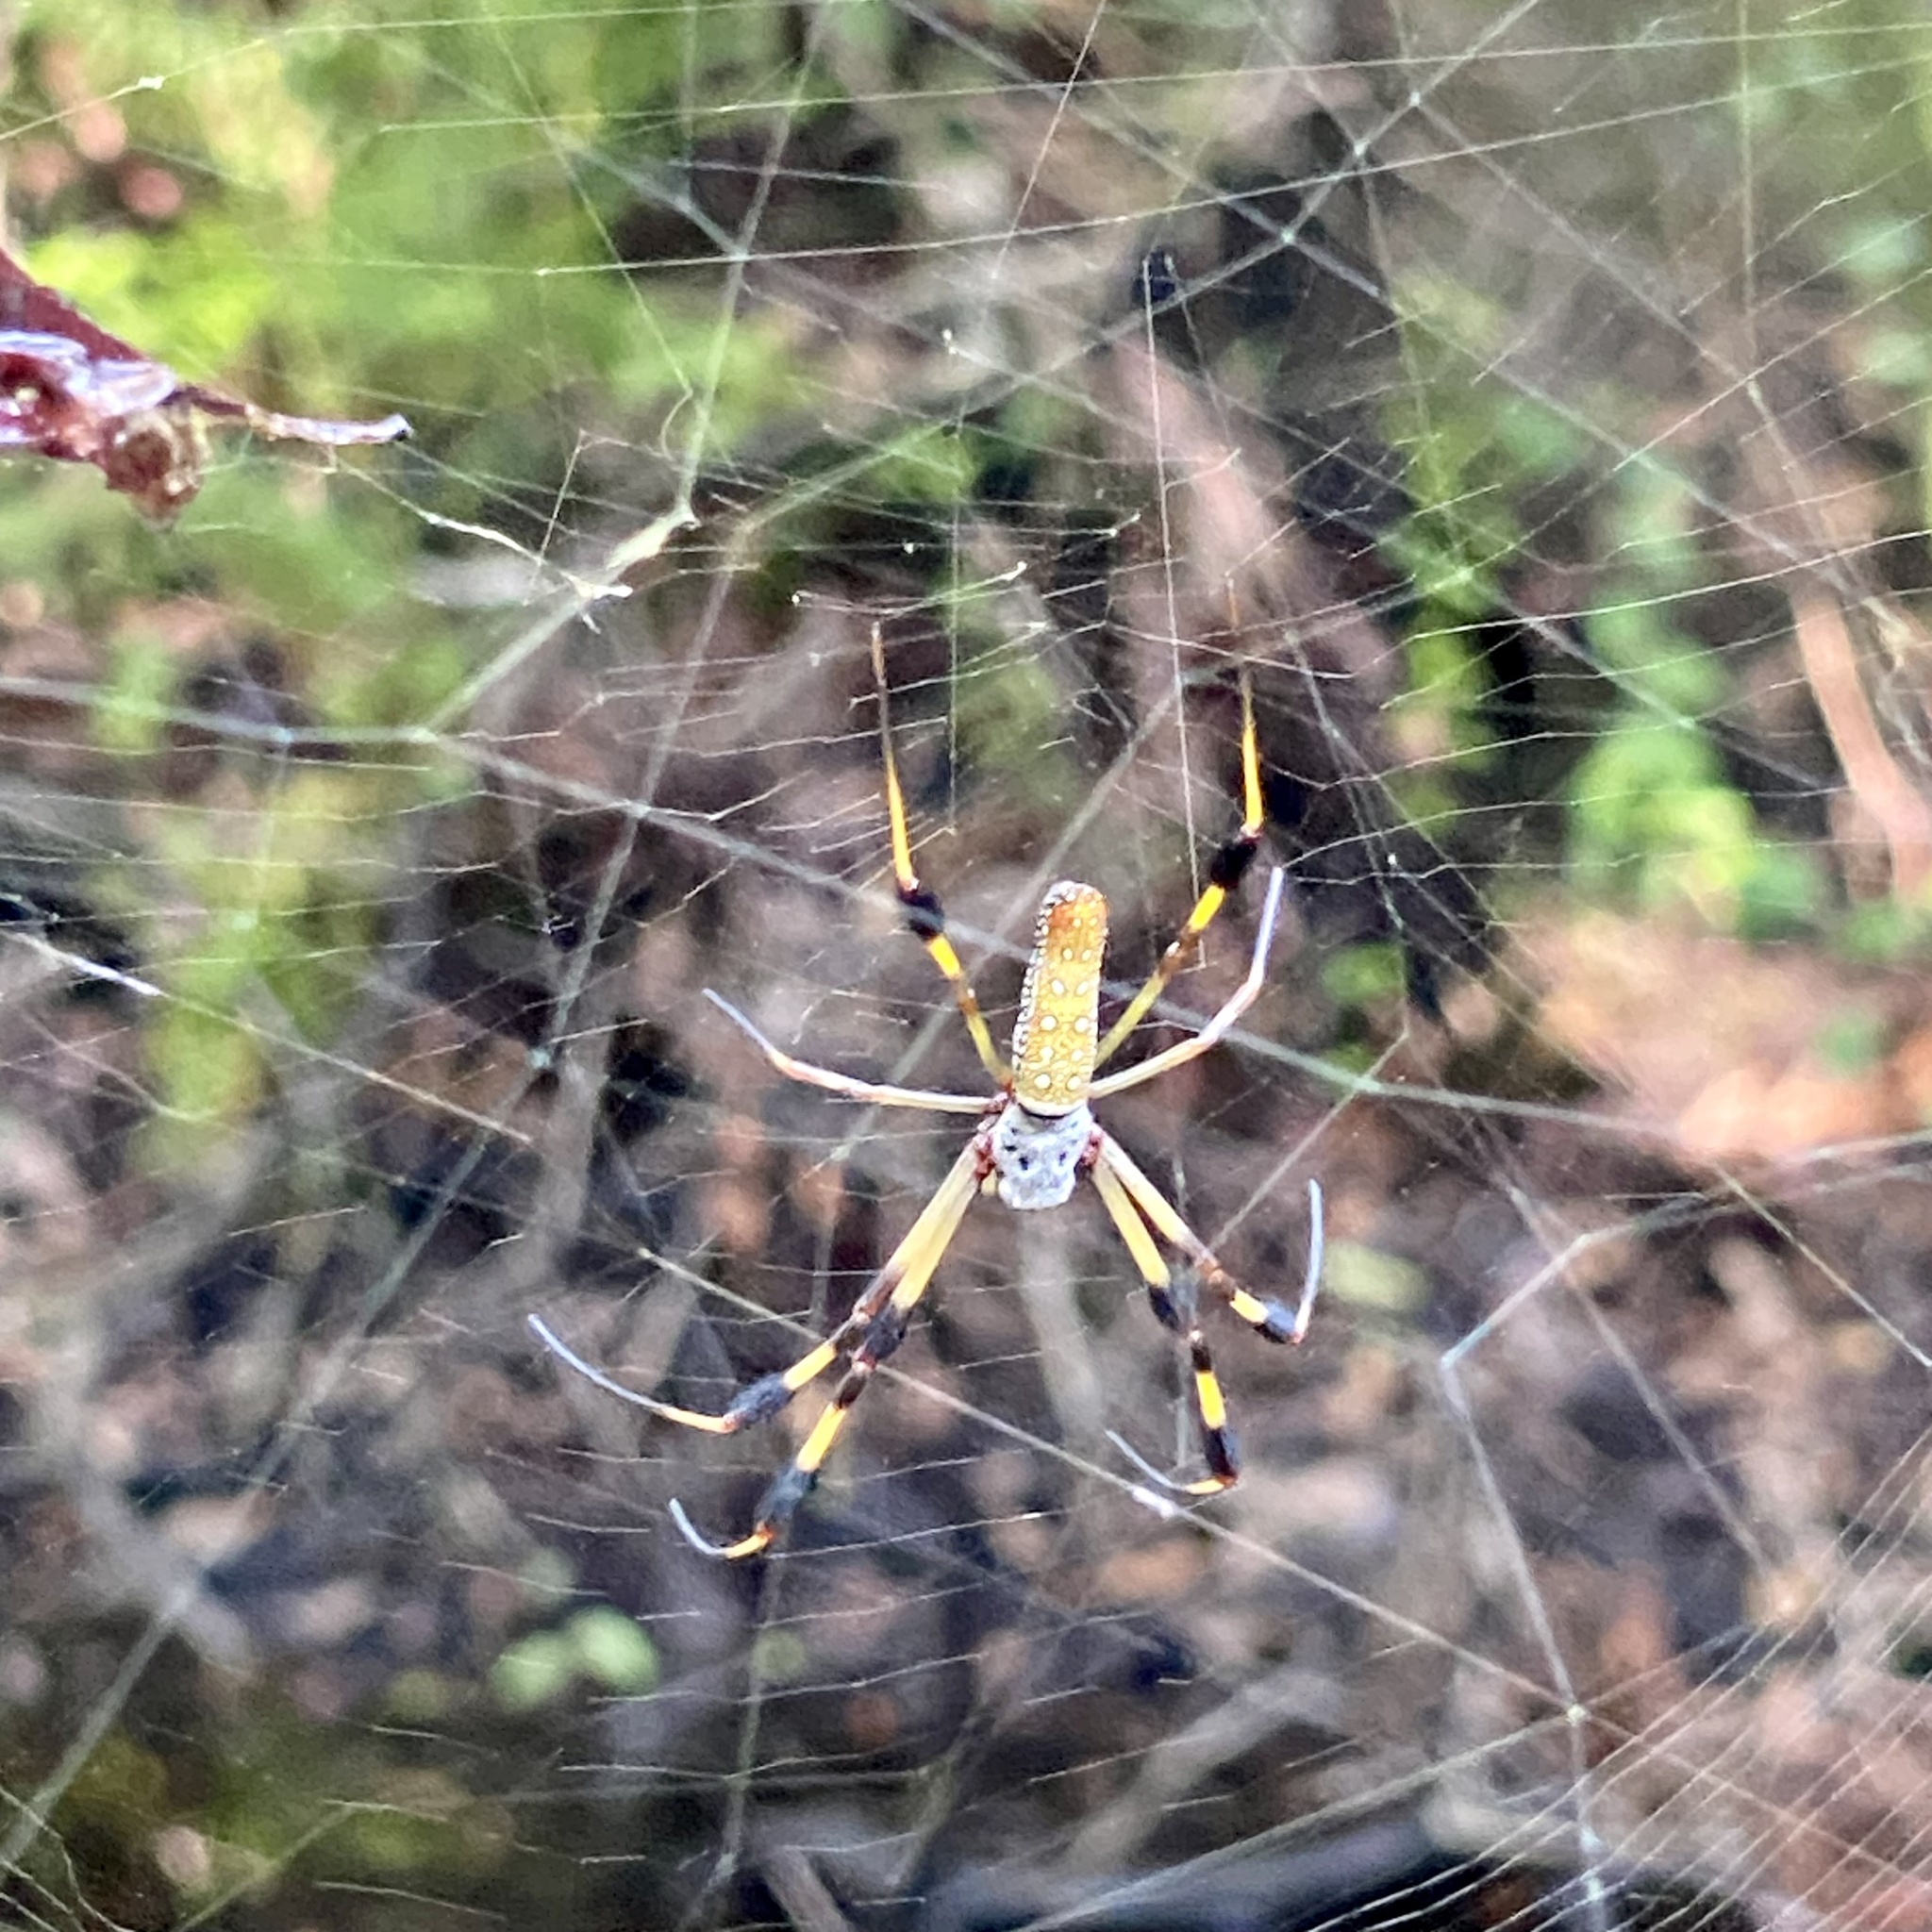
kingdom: Animalia
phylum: Arthropoda
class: Arachnida
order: Araneae
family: Araneidae
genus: Trichonephila
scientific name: Trichonephila clavipes
